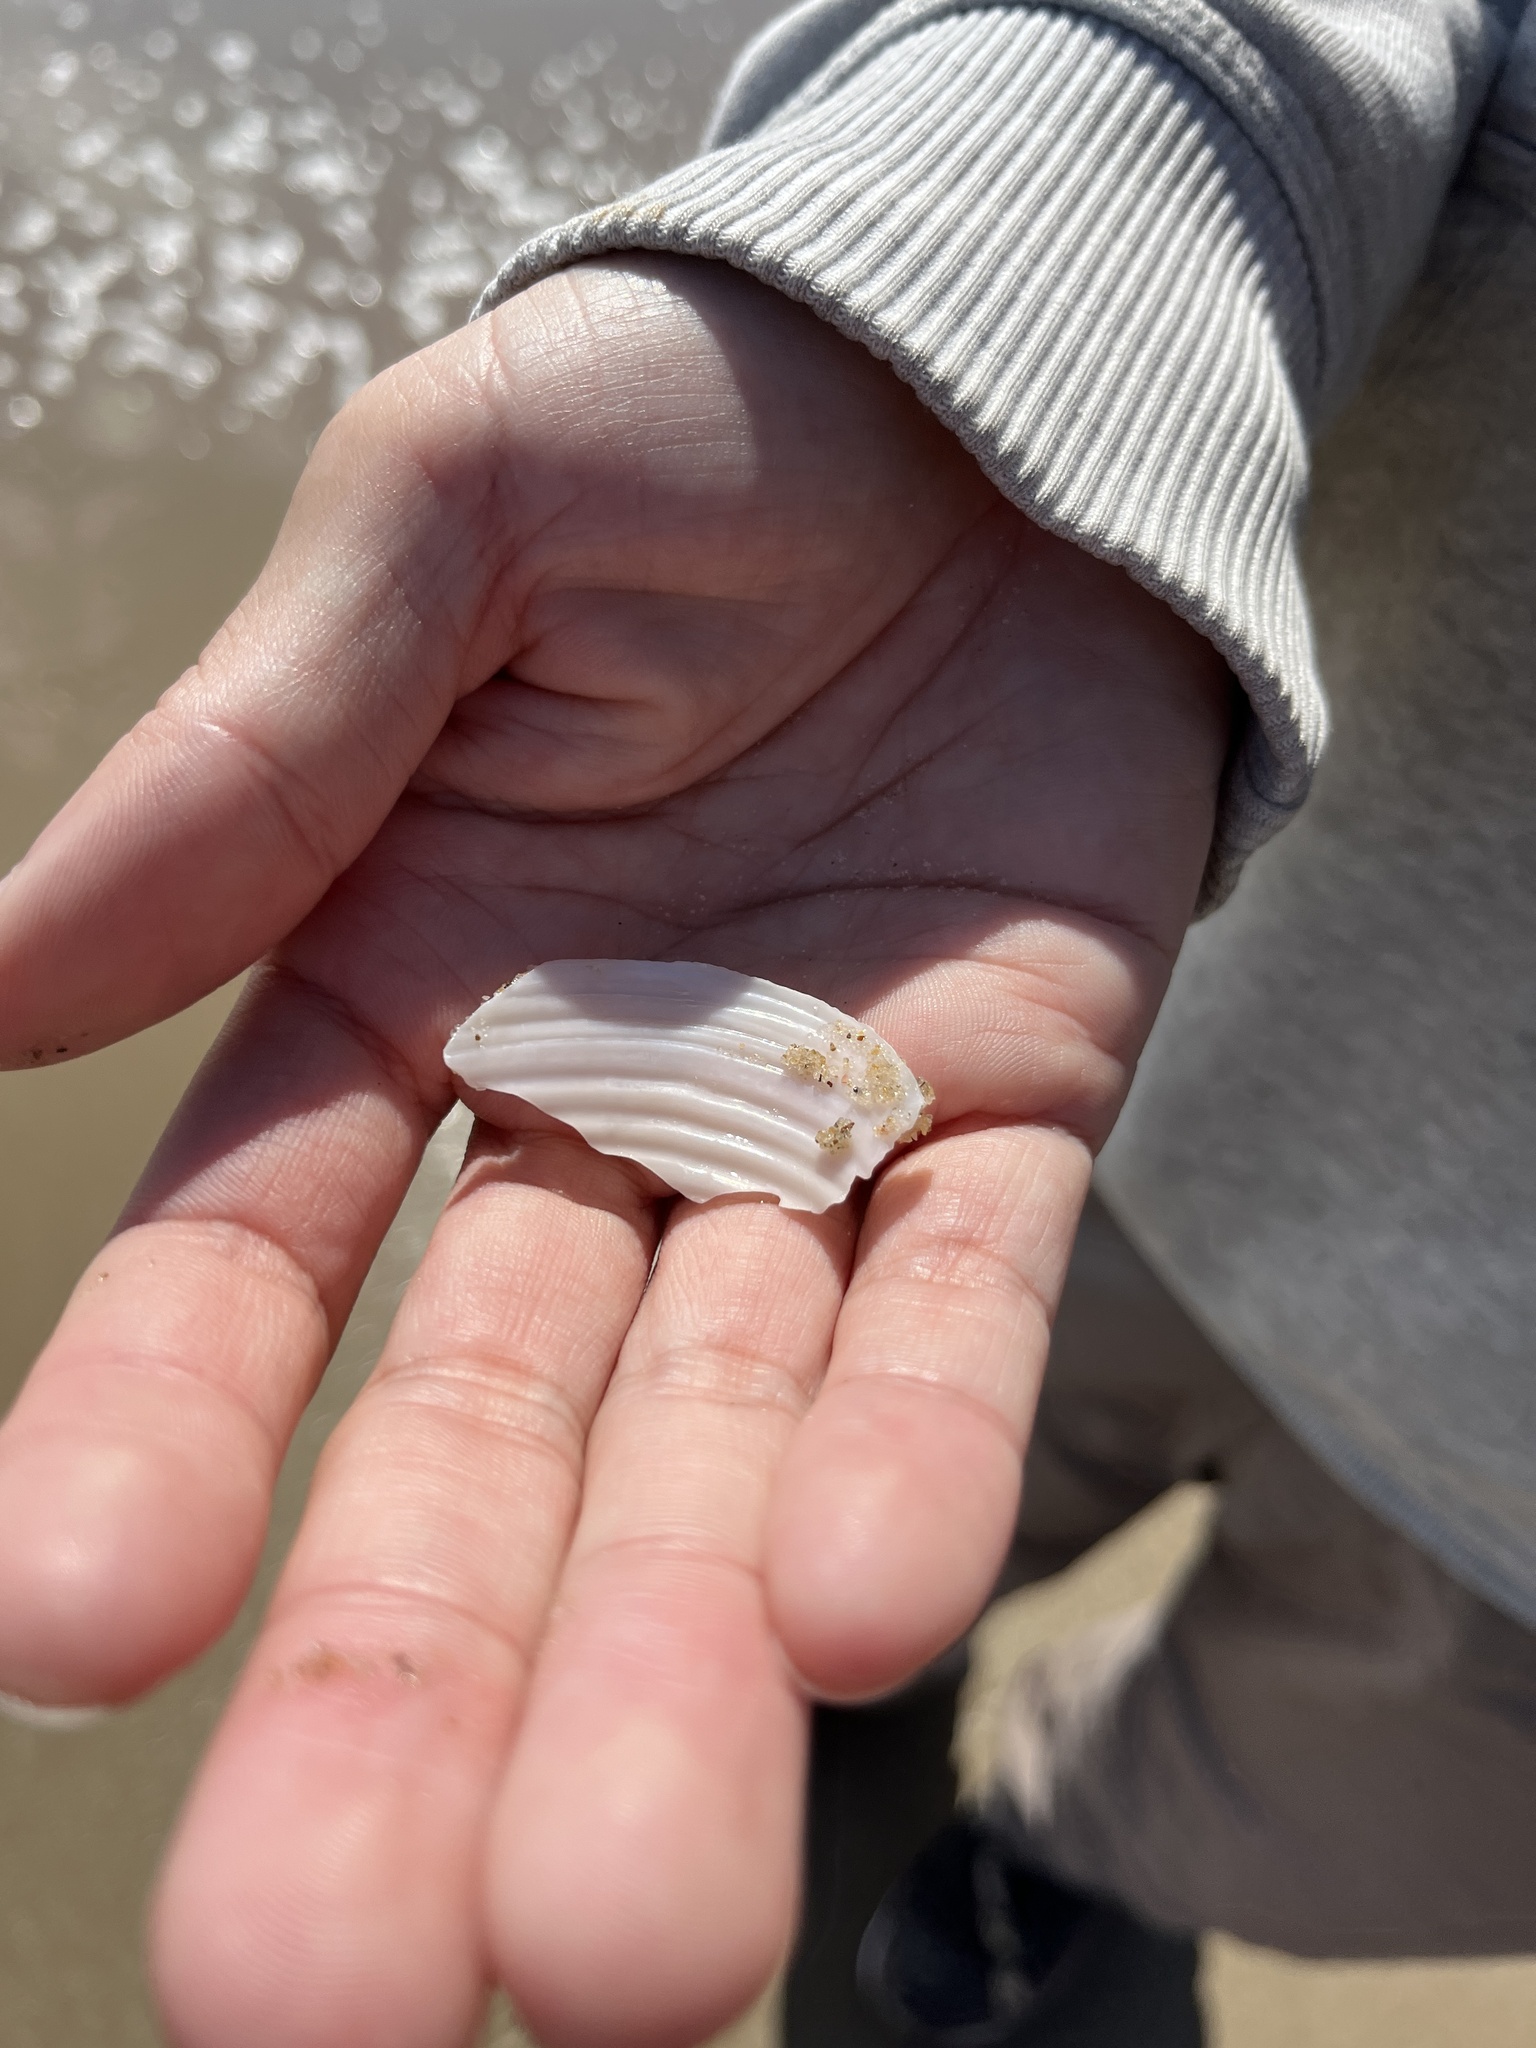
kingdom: Animalia
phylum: Mollusca
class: Bivalvia
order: Venerida
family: Anatinellidae
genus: Raeta
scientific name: Raeta plicatella
